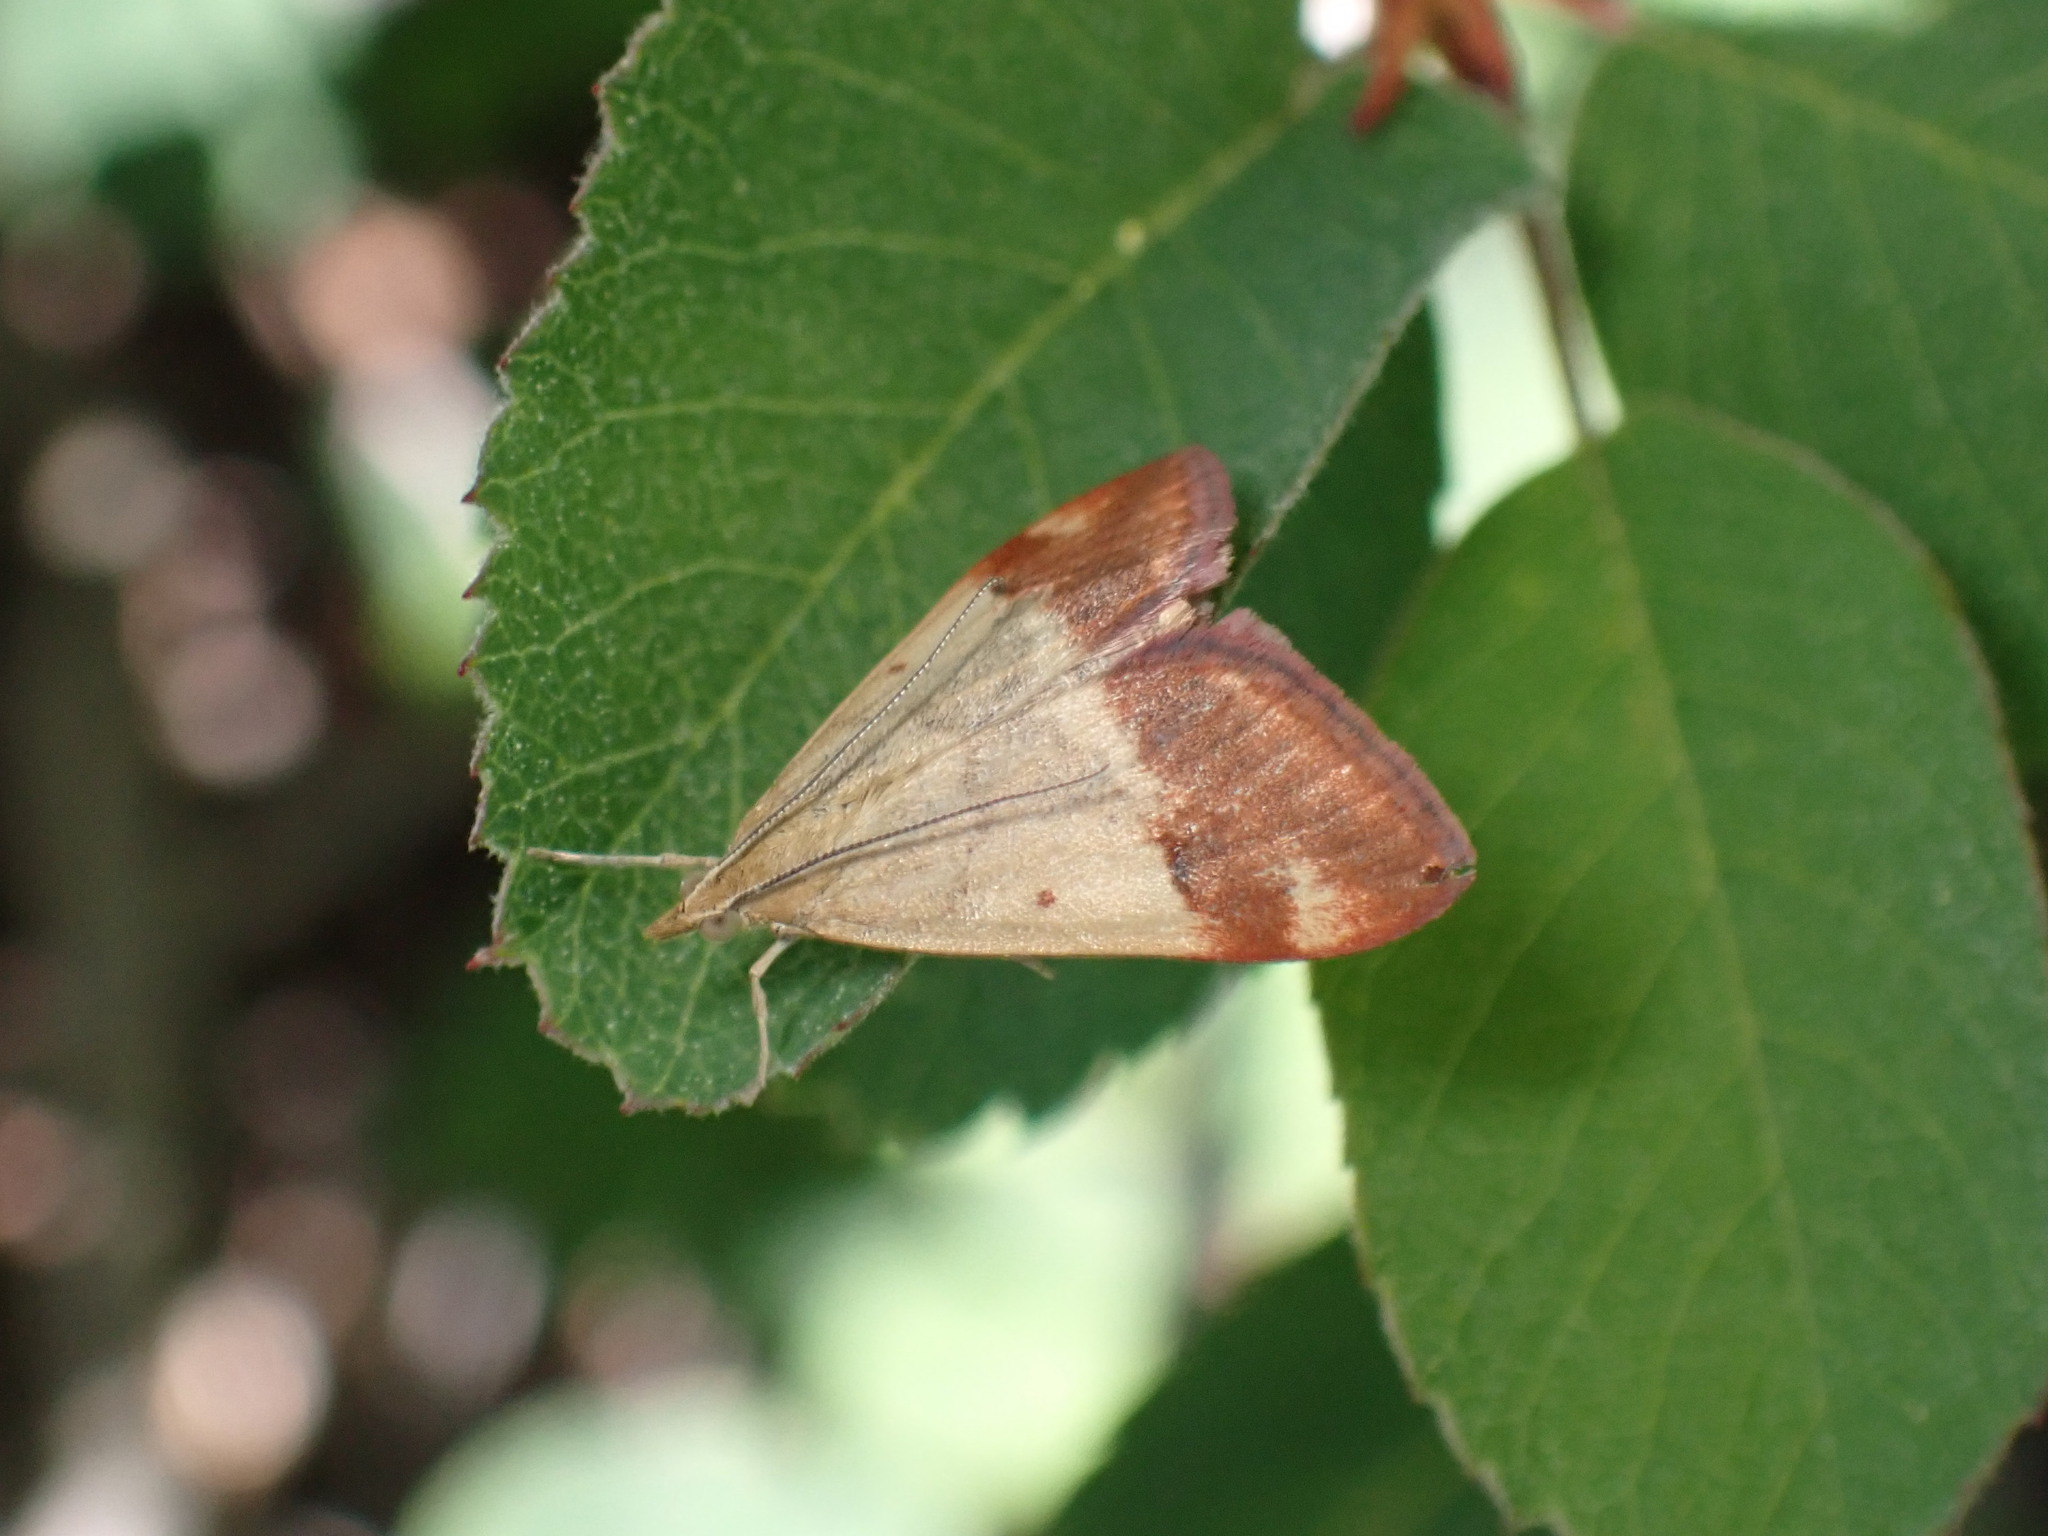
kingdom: Animalia
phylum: Arthropoda
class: Insecta
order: Lepidoptera
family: Crambidae
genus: Pyrausta
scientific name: Pyrausta semirubralis
